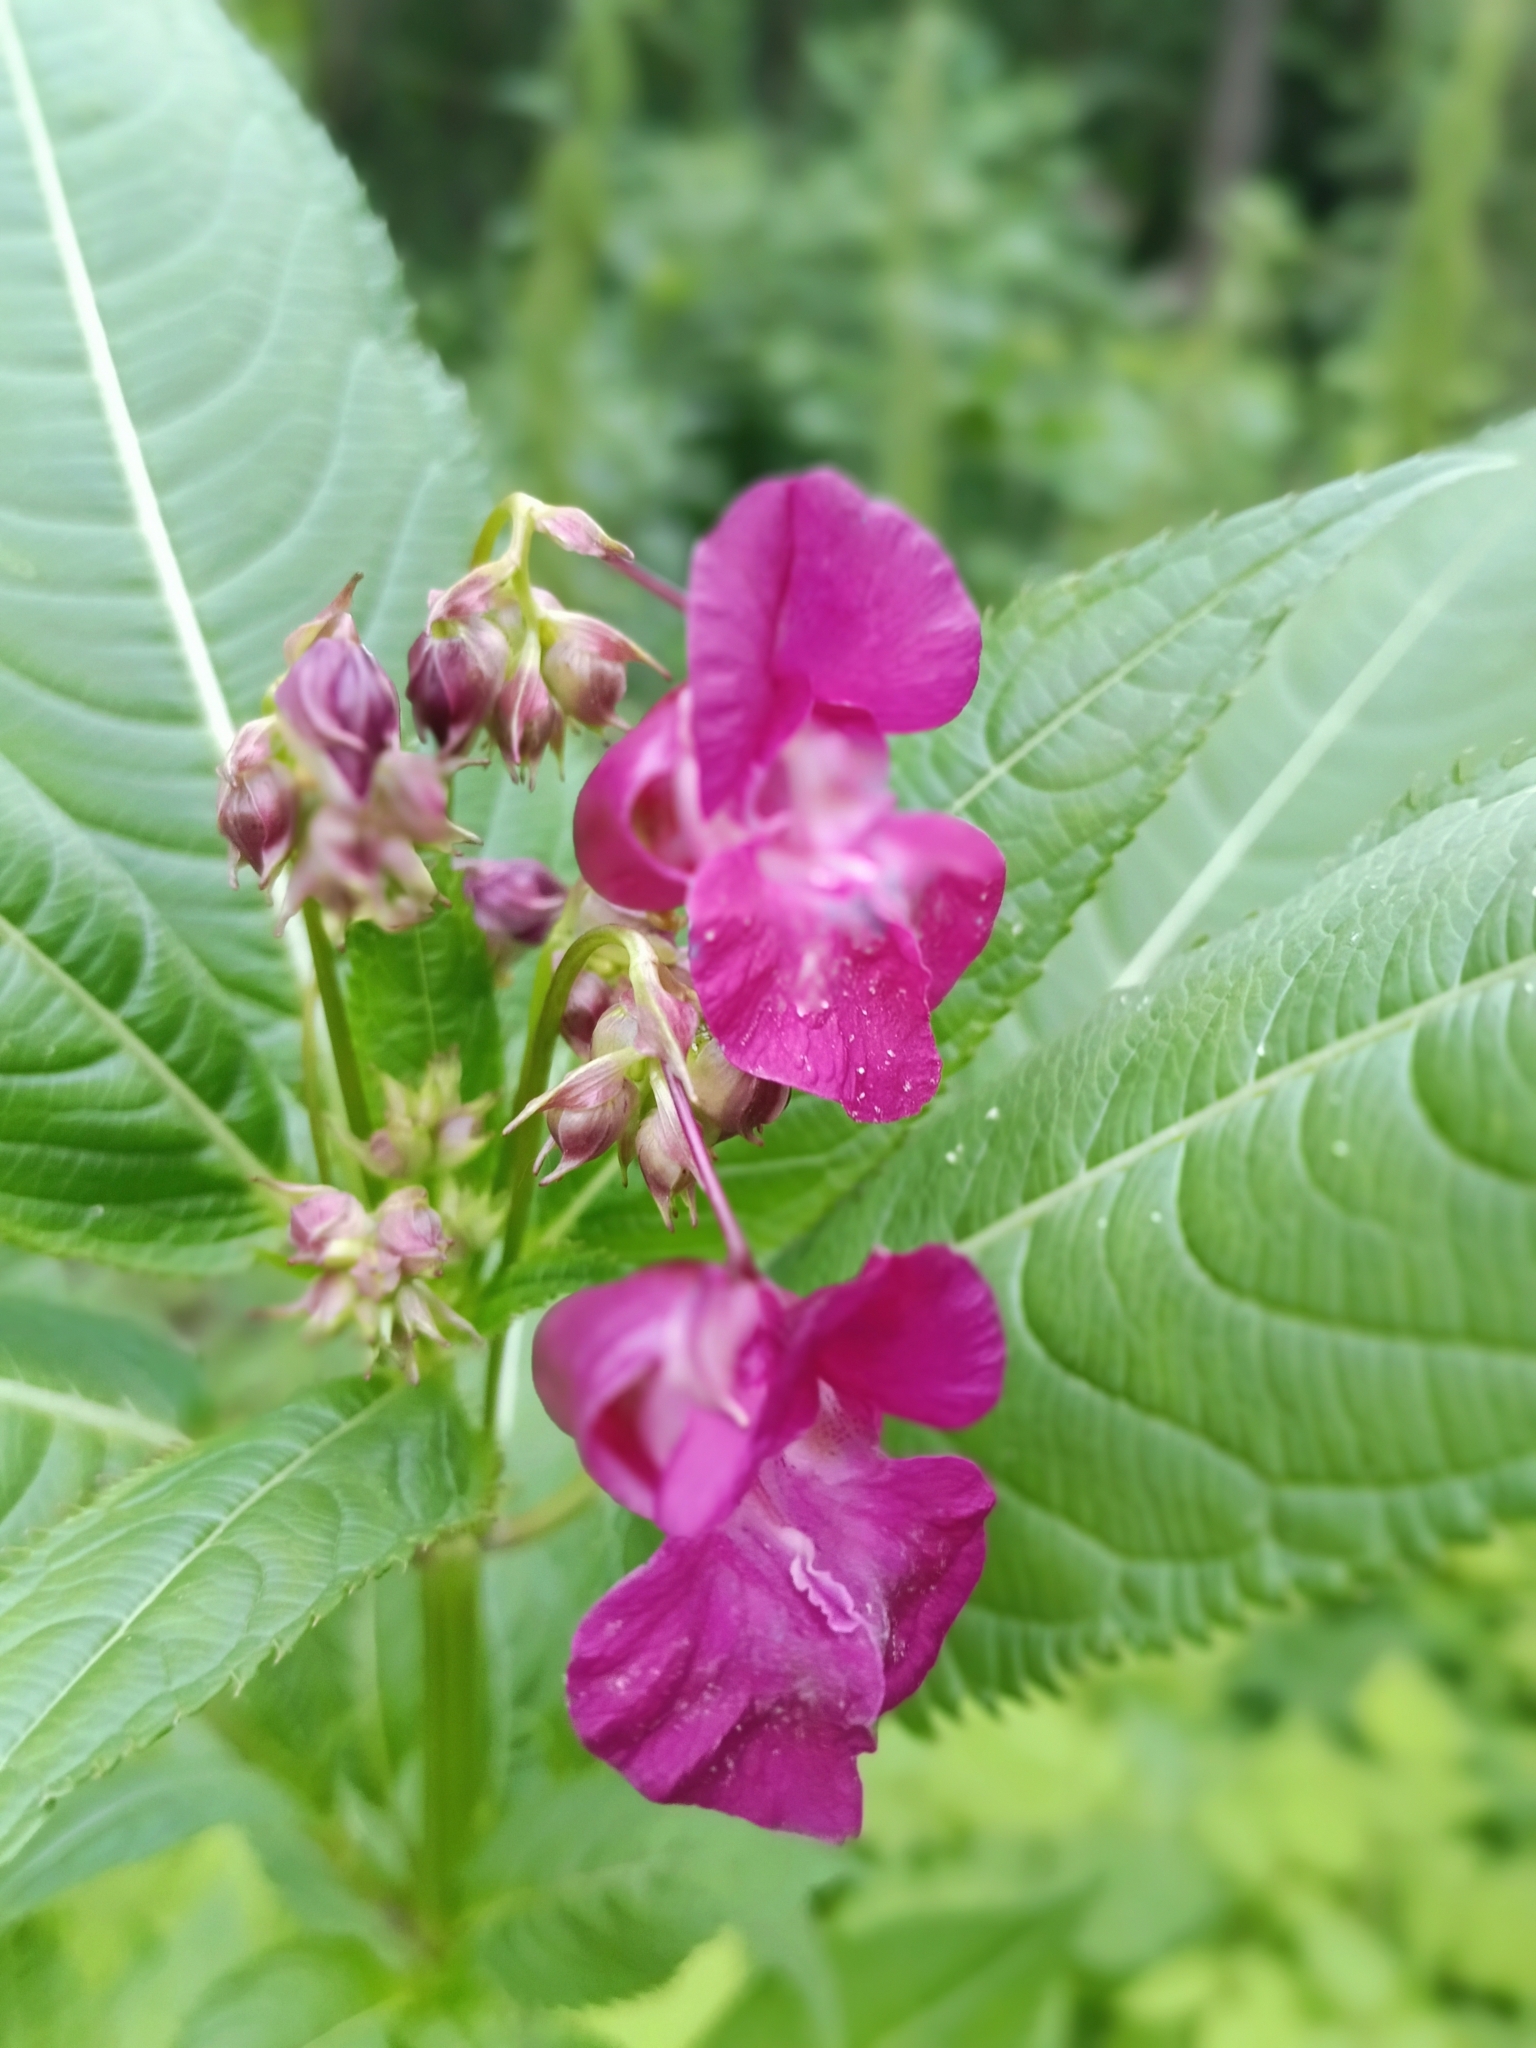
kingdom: Plantae
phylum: Tracheophyta
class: Magnoliopsida
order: Ericales
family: Balsaminaceae
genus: Impatiens
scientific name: Impatiens glandulifera
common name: Himalayan balsam
